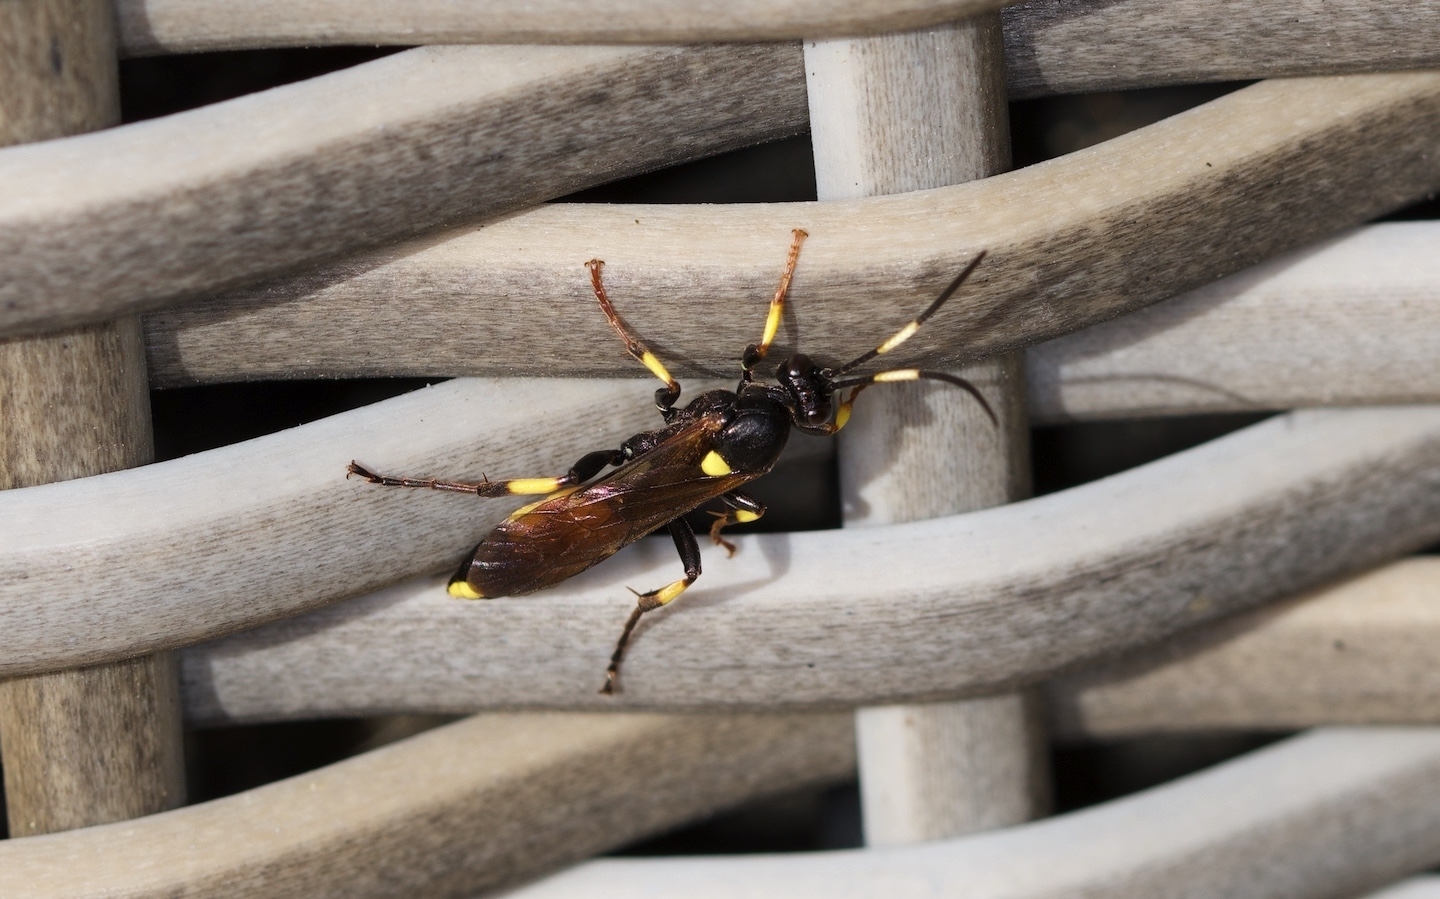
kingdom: Animalia
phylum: Arthropoda
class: Insecta
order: Hymenoptera
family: Ichneumonidae
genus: Ichneumon
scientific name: Ichneumon stramentor
